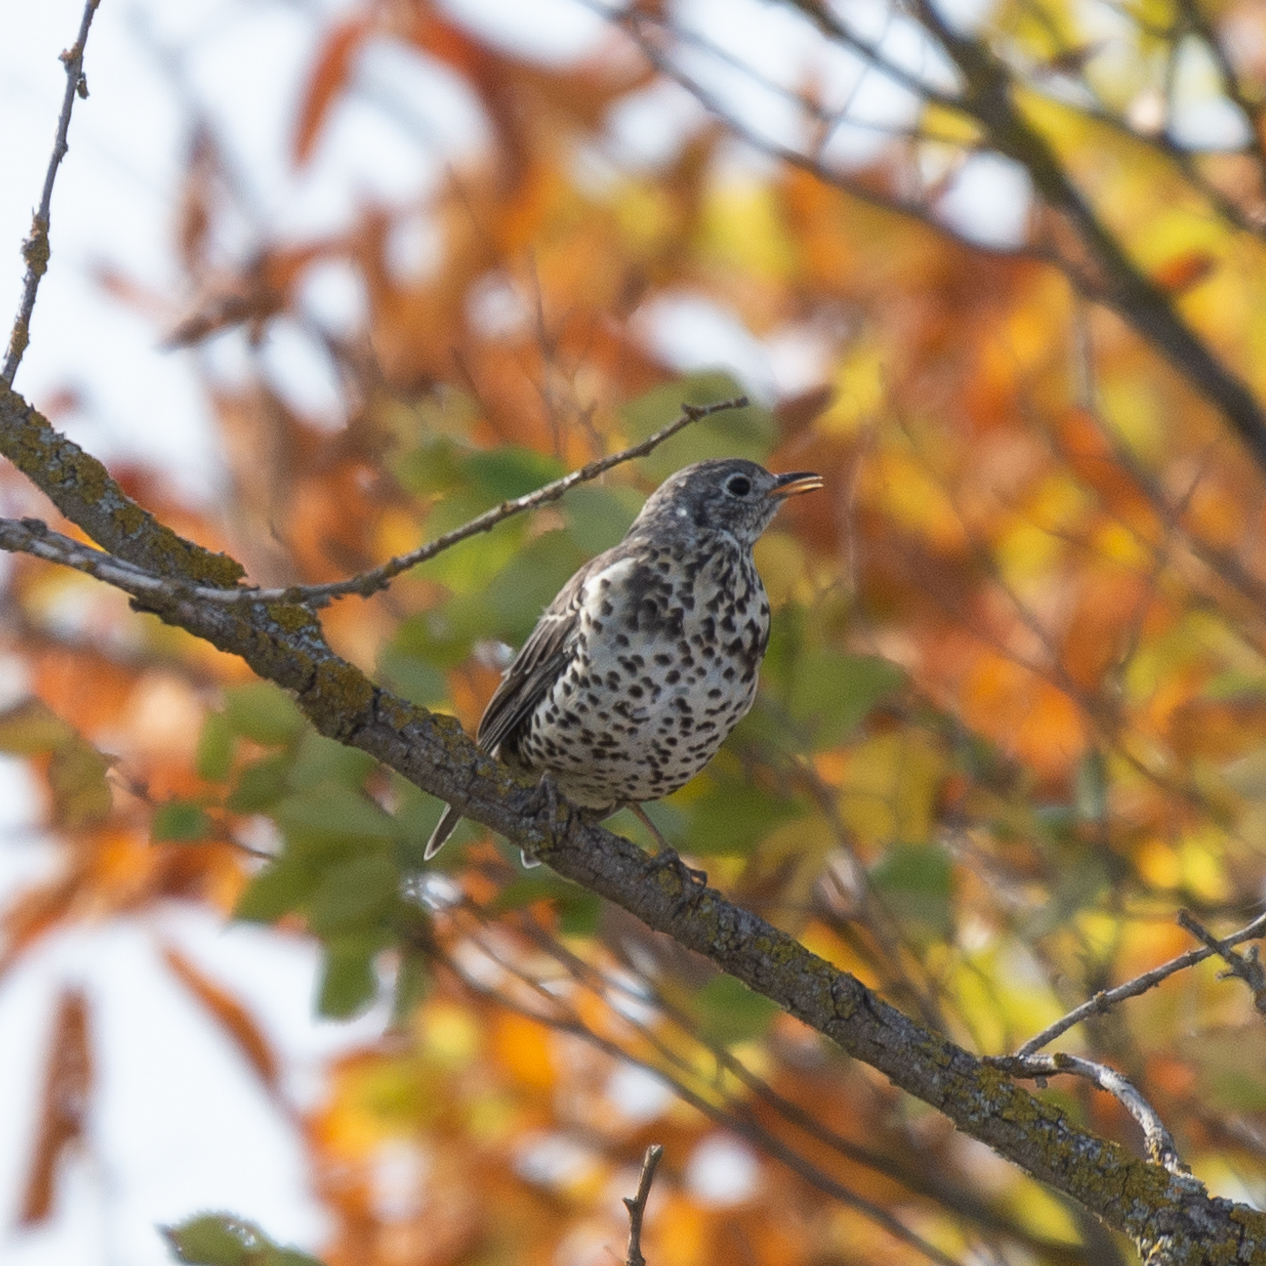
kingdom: Animalia
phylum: Chordata
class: Aves
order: Passeriformes
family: Turdidae
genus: Turdus
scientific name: Turdus viscivorus
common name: Mistle thrush
